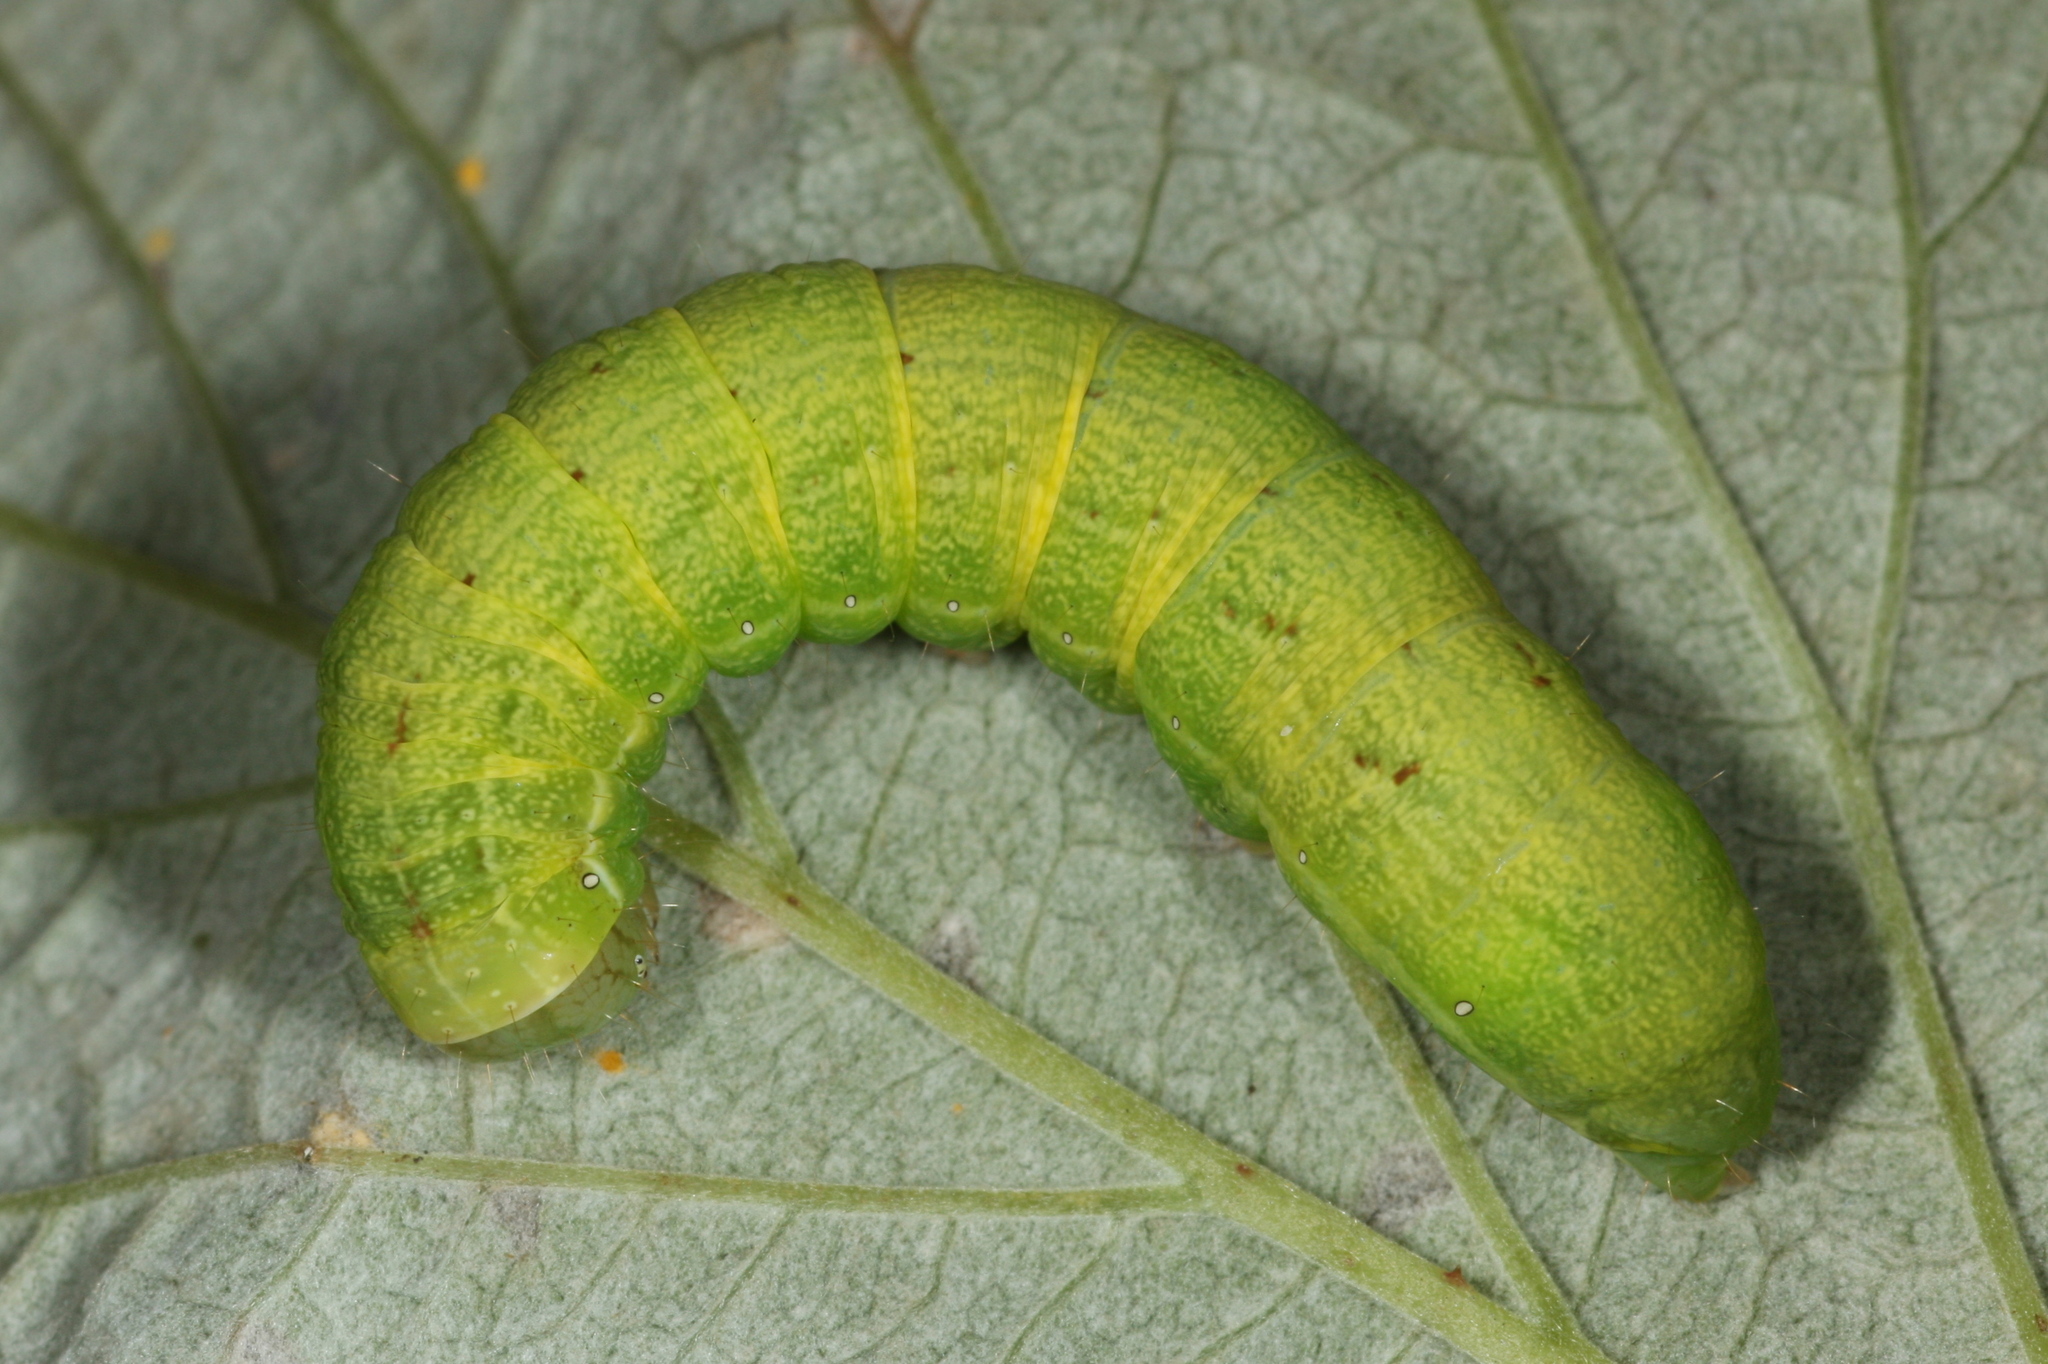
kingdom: Animalia
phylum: Arthropoda
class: Insecta
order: Lepidoptera
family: Noctuidae
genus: Lacanobia
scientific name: Lacanobia contigua
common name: Beautiful brocade
